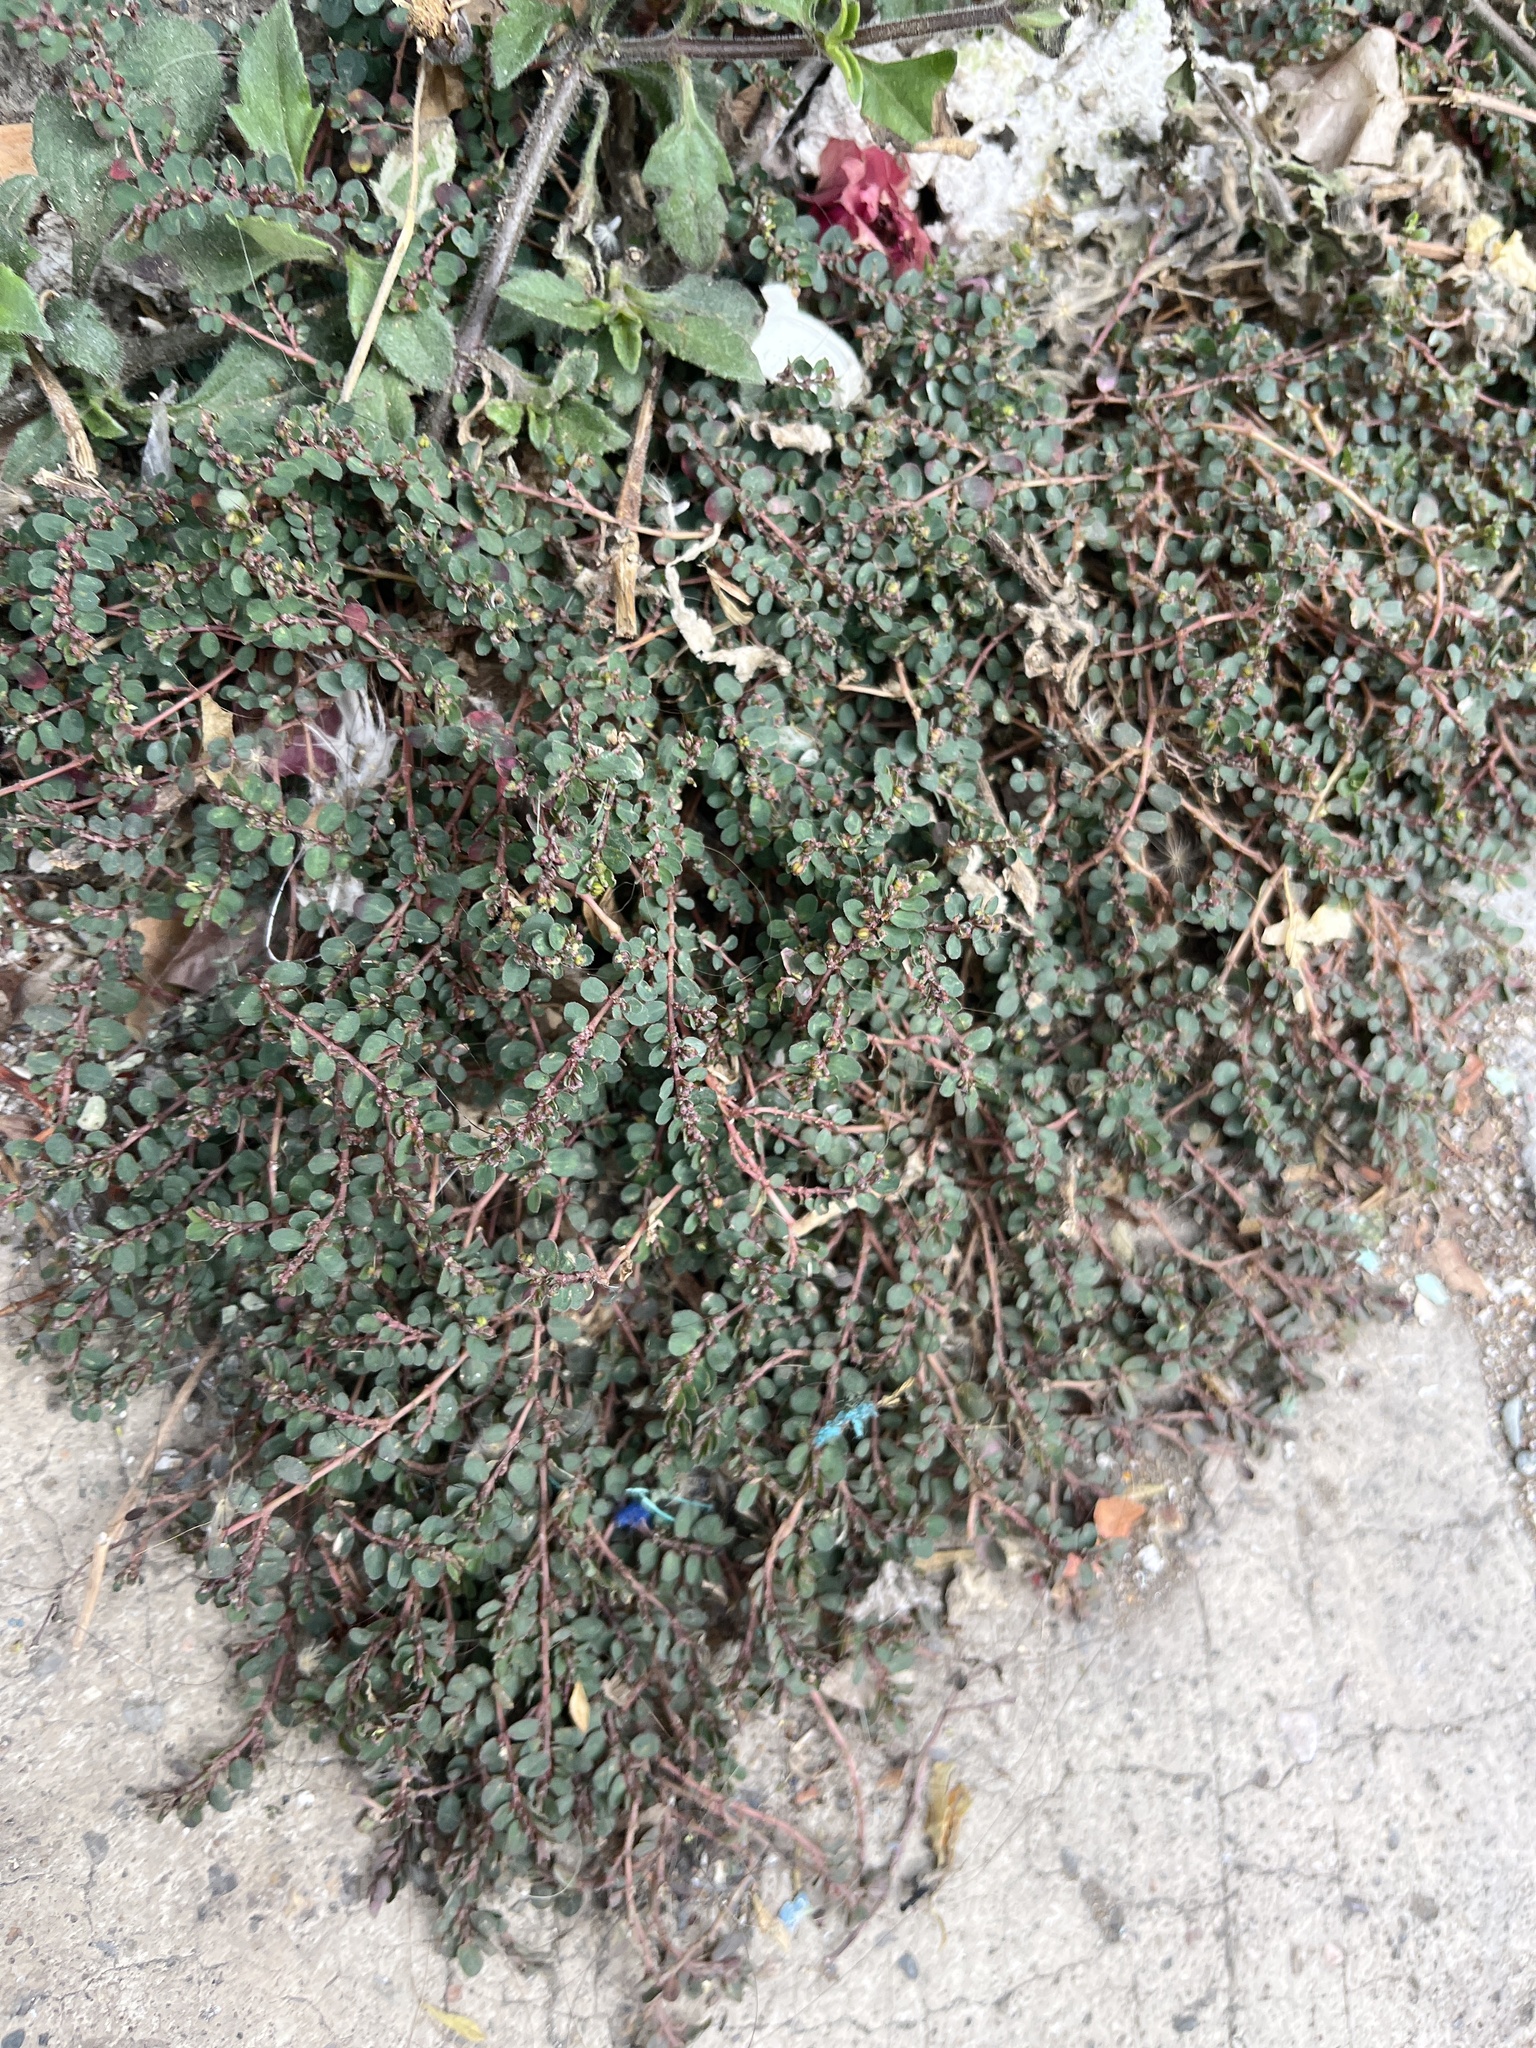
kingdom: Plantae
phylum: Tracheophyta
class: Magnoliopsida
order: Malpighiales
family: Euphorbiaceae
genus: Euphorbia
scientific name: Euphorbia prostrata
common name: Prostrate sandmat
